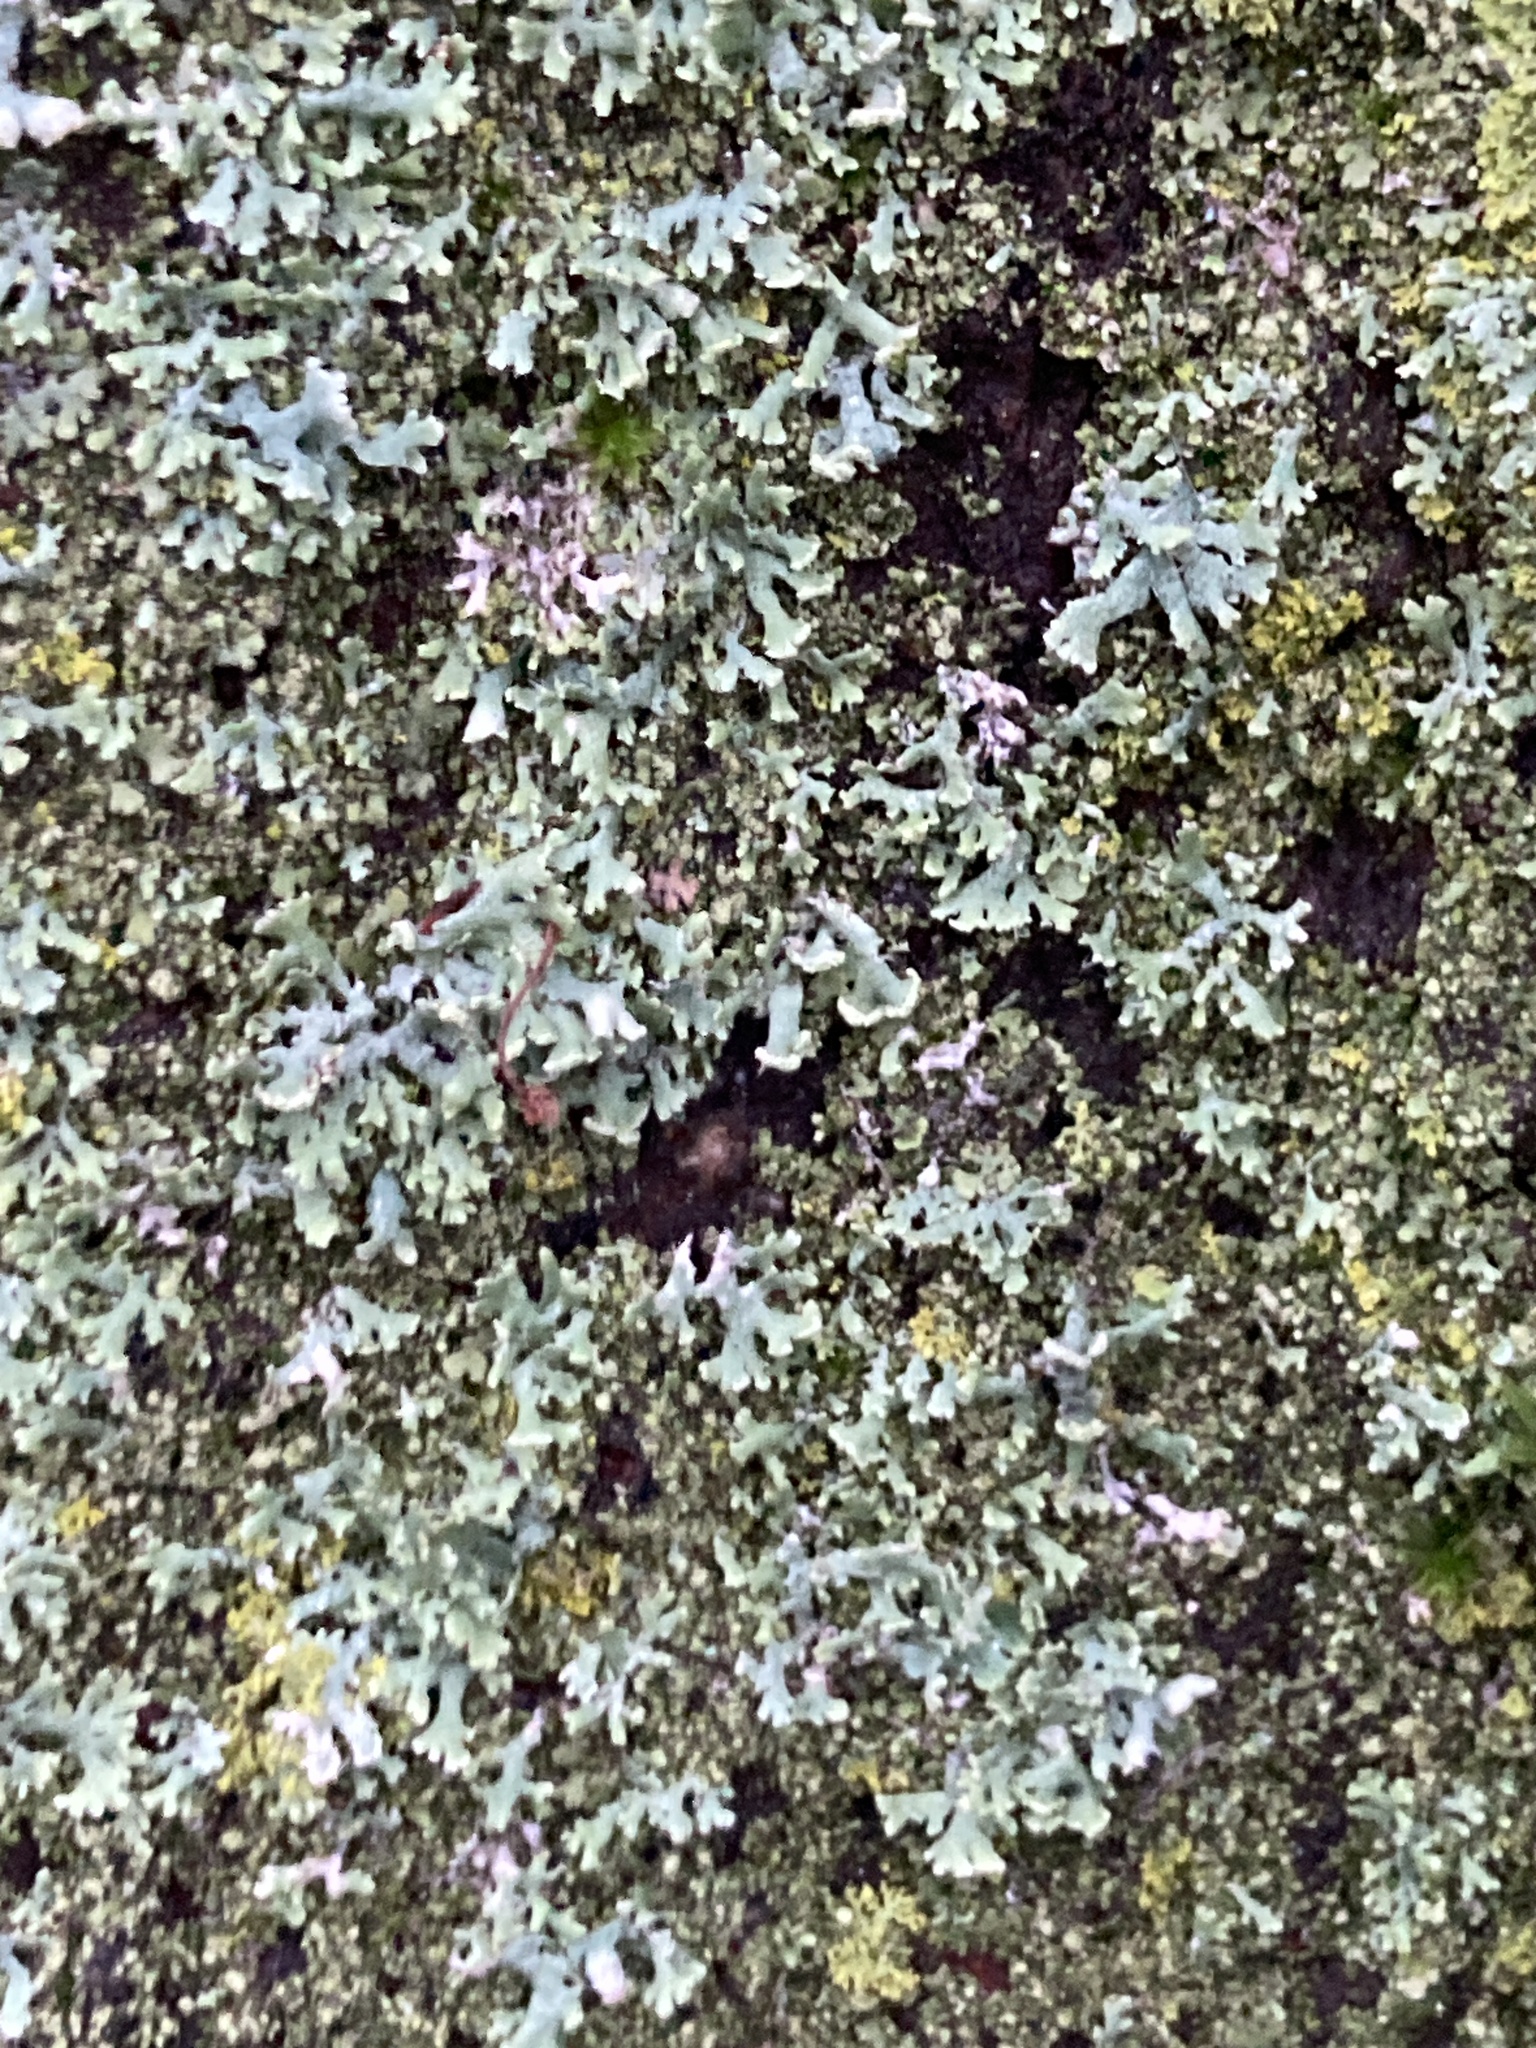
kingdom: Fungi
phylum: Ascomycota
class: Lecanoromycetes
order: Caliciales
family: Physciaceae
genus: Physcia
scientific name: Physcia tenella
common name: Fringed rosette lichen
